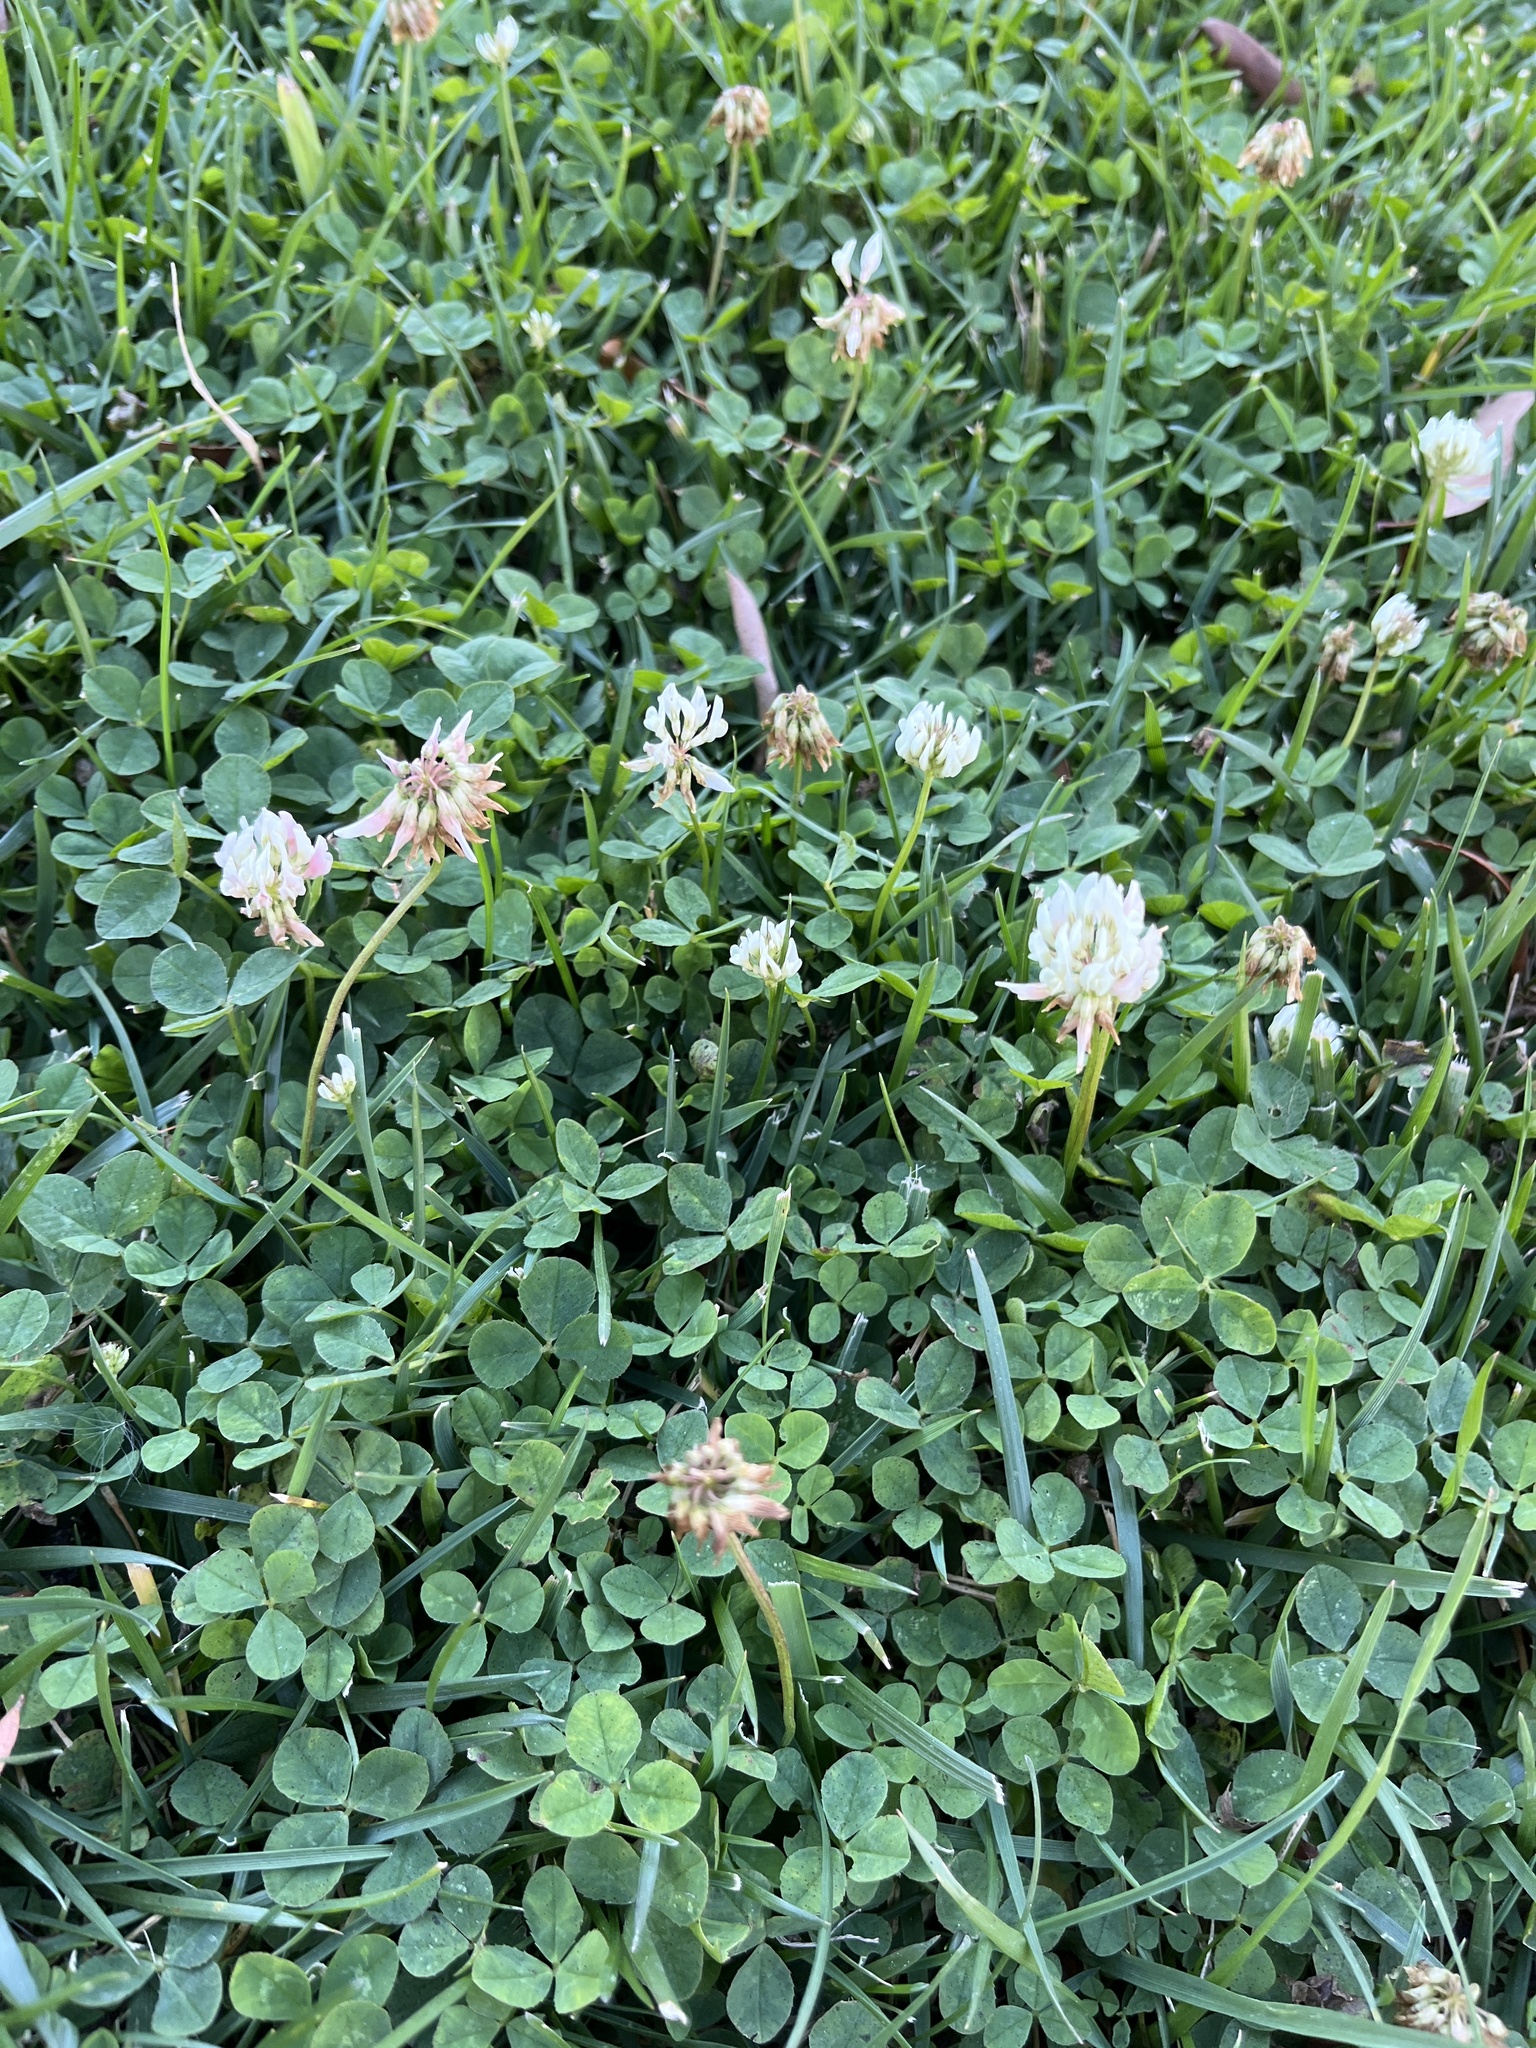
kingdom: Plantae
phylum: Tracheophyta
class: Magnoliopsida
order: Fabales
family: Fabaceae
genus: Trifolium
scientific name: Trifolium repens
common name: White clover
